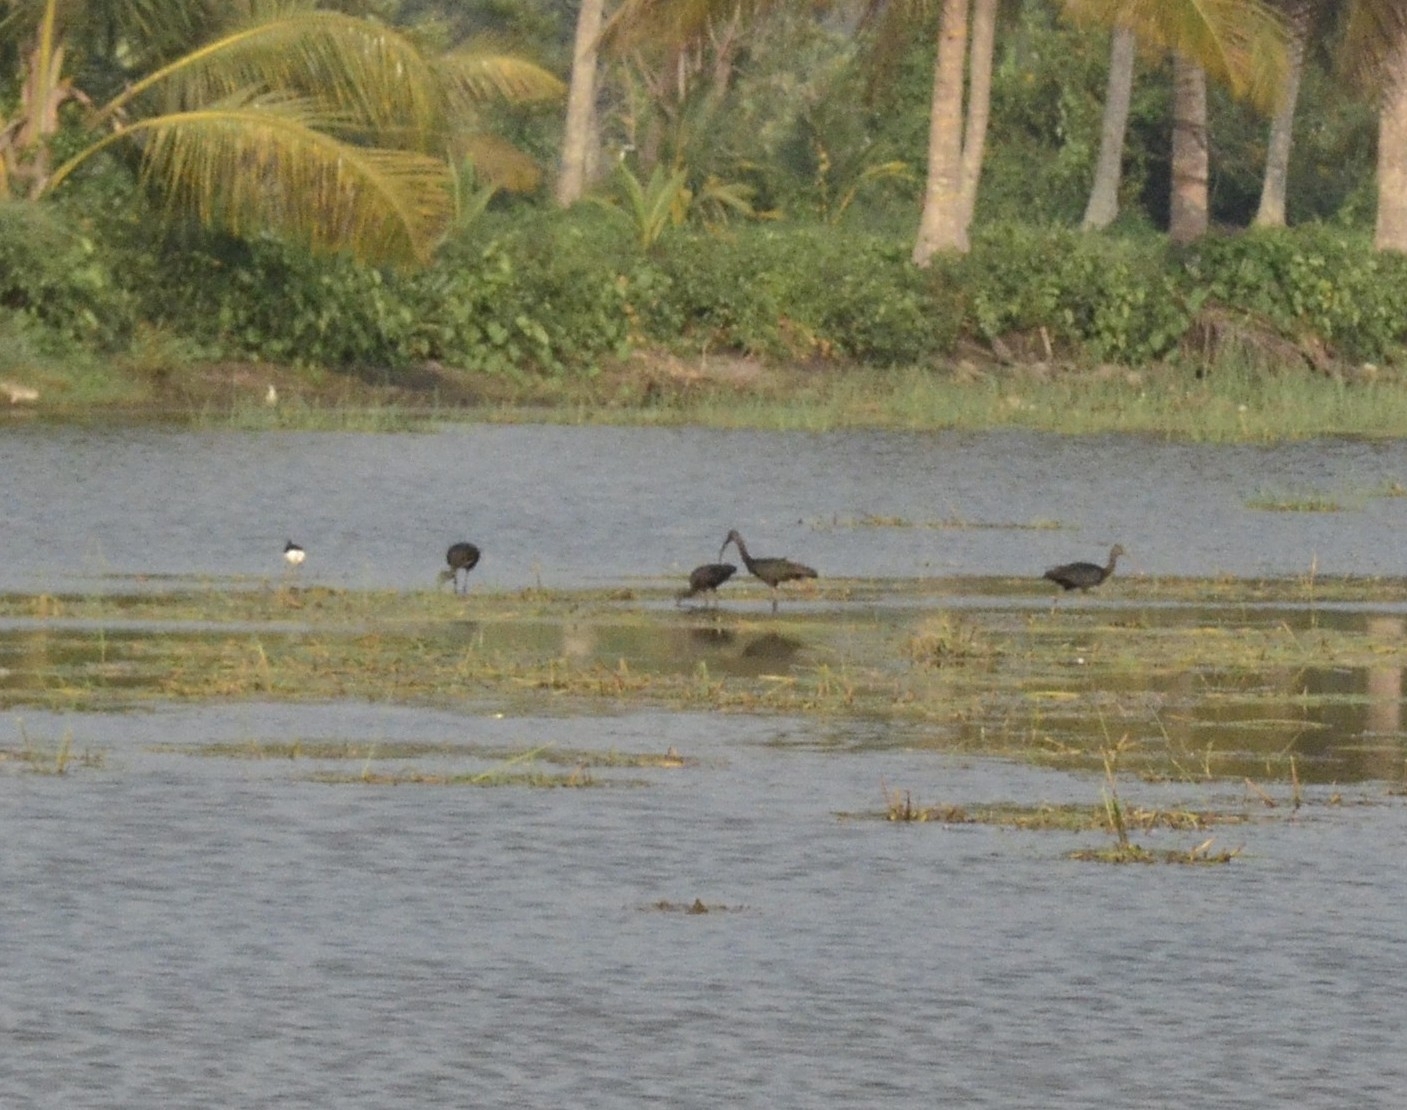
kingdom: Animalia
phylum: Chordata
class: Aves
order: Pelecaniformes
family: Threskiornithidae
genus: Plegadis
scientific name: Plegadis falcinellus
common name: Glossy ibis
